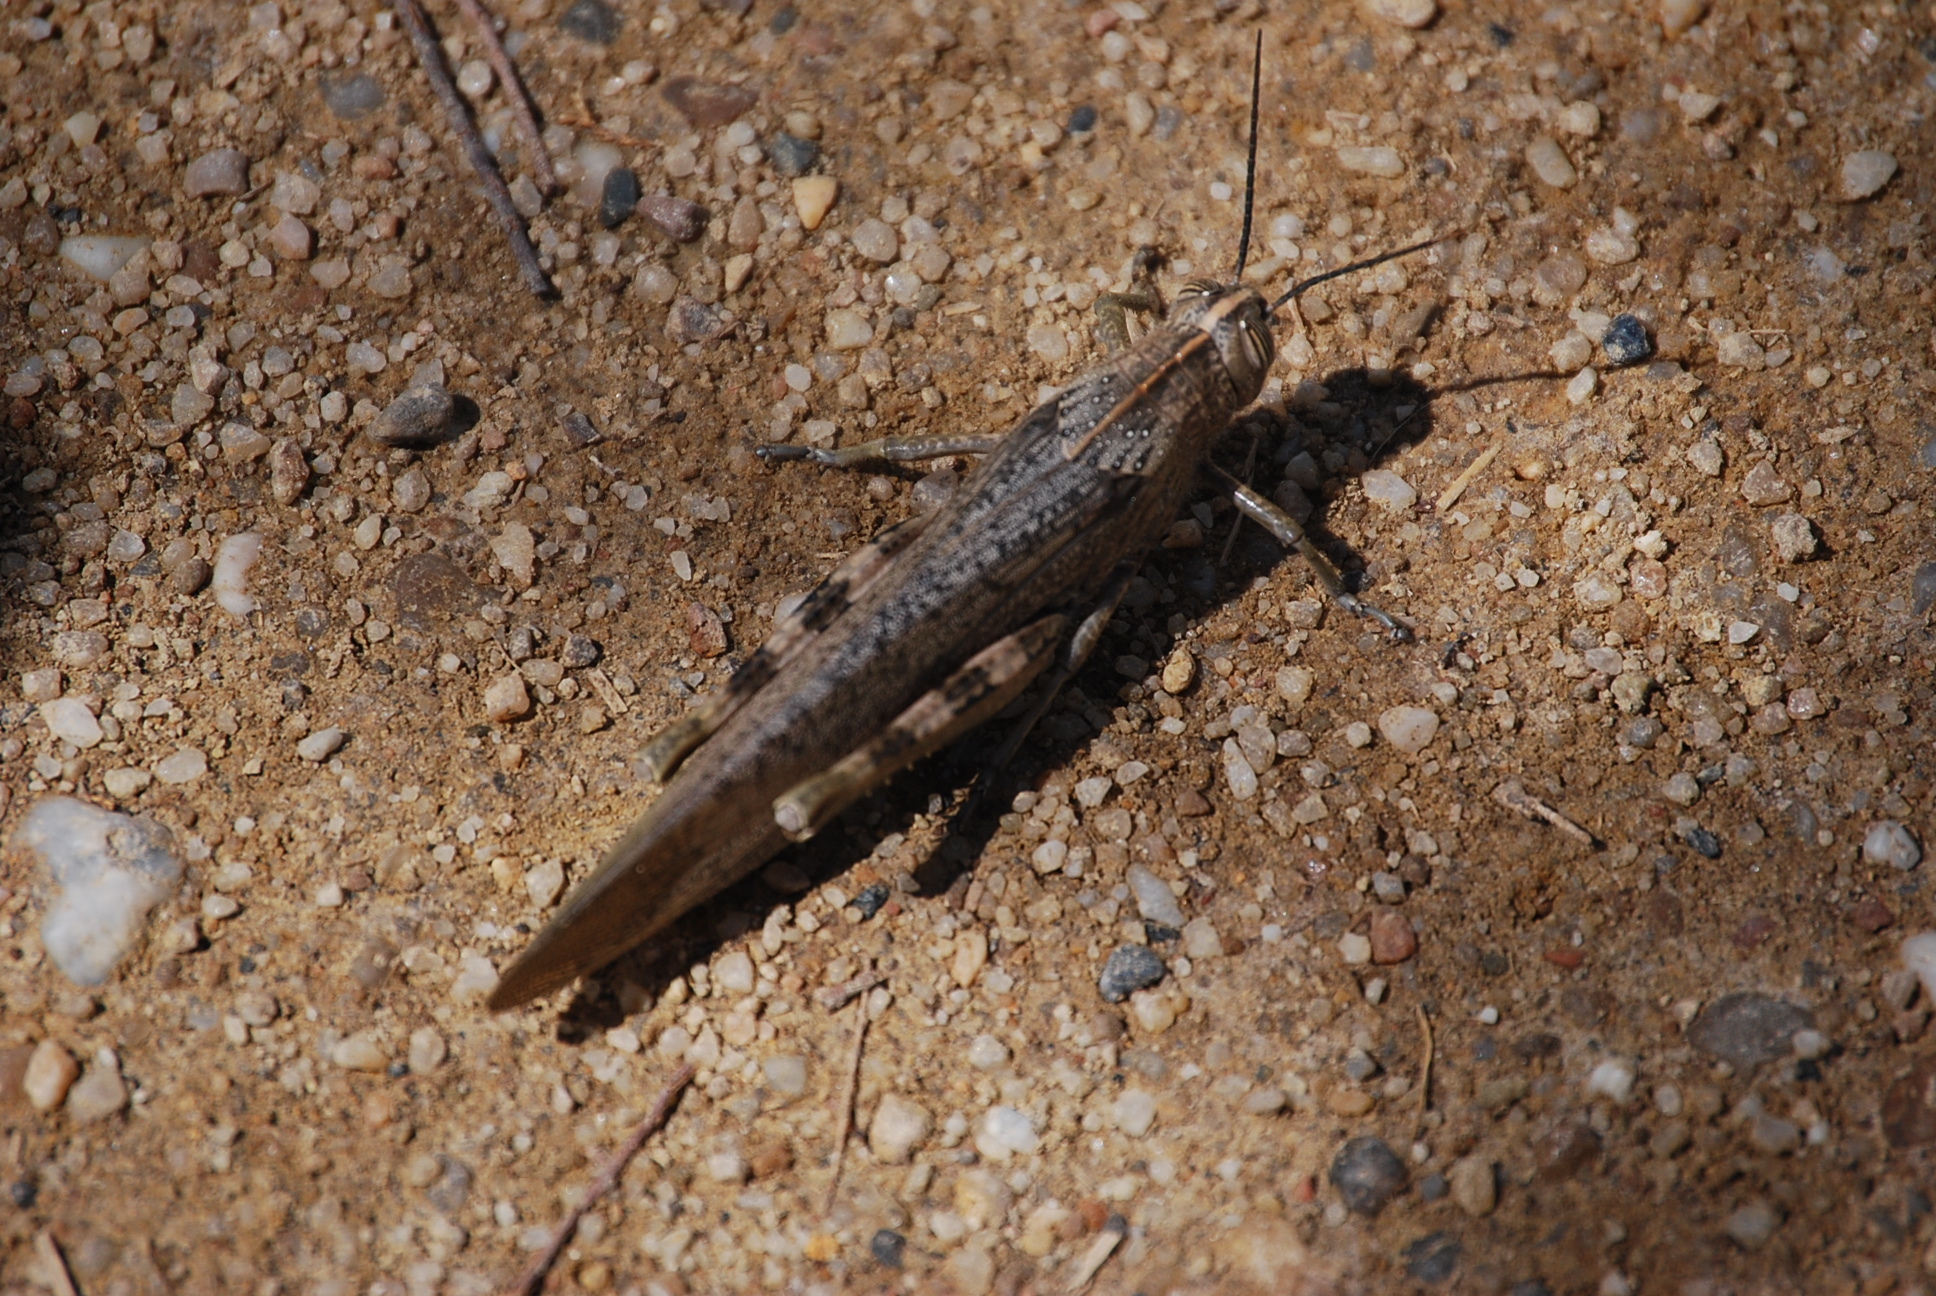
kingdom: Animalia
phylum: Arthropoda
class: Insecta
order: Orthoptera
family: Acrididae
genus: Anacridium
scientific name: Anacridium aegyptium
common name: Egyptian grasshopper
